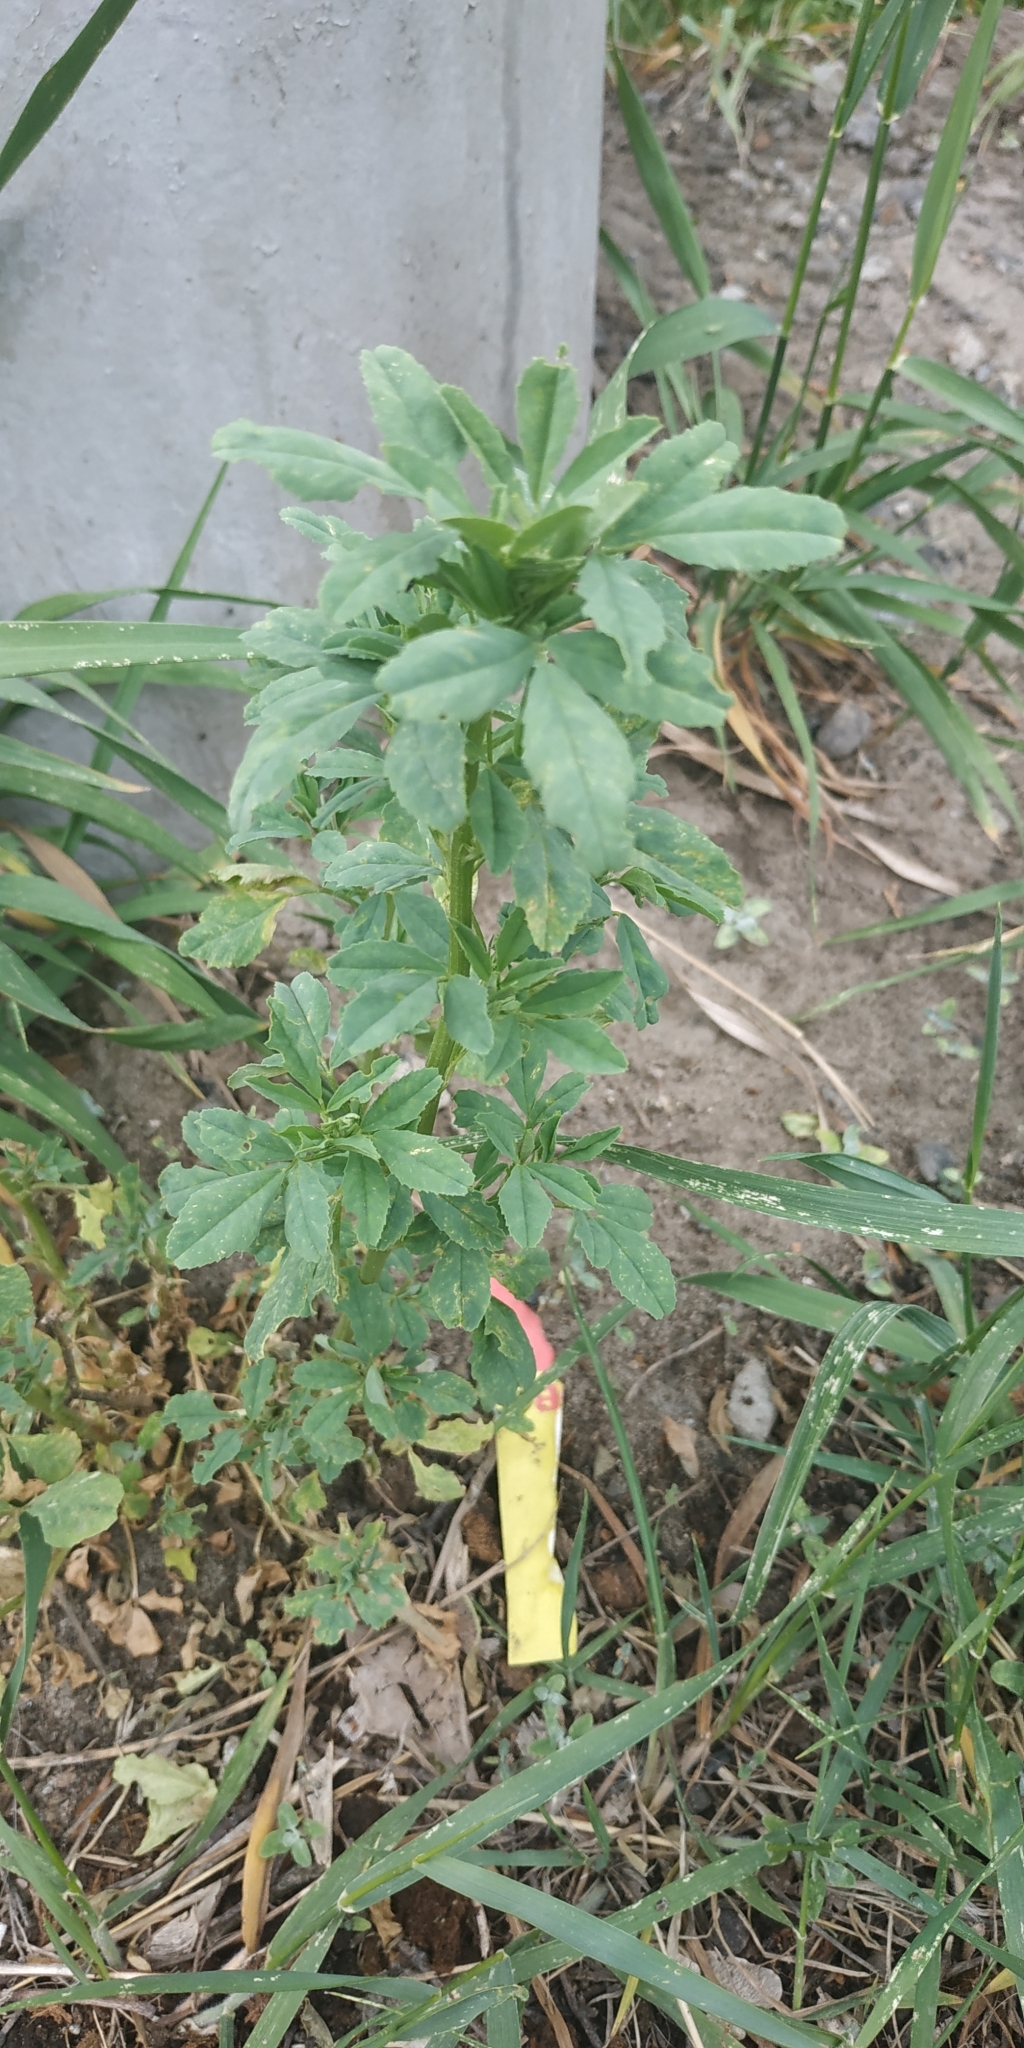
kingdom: Plantae
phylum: Tracheophyta
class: Magnoliopsida
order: Fabales
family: Fabaceae
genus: Melilotus
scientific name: Melilotus
